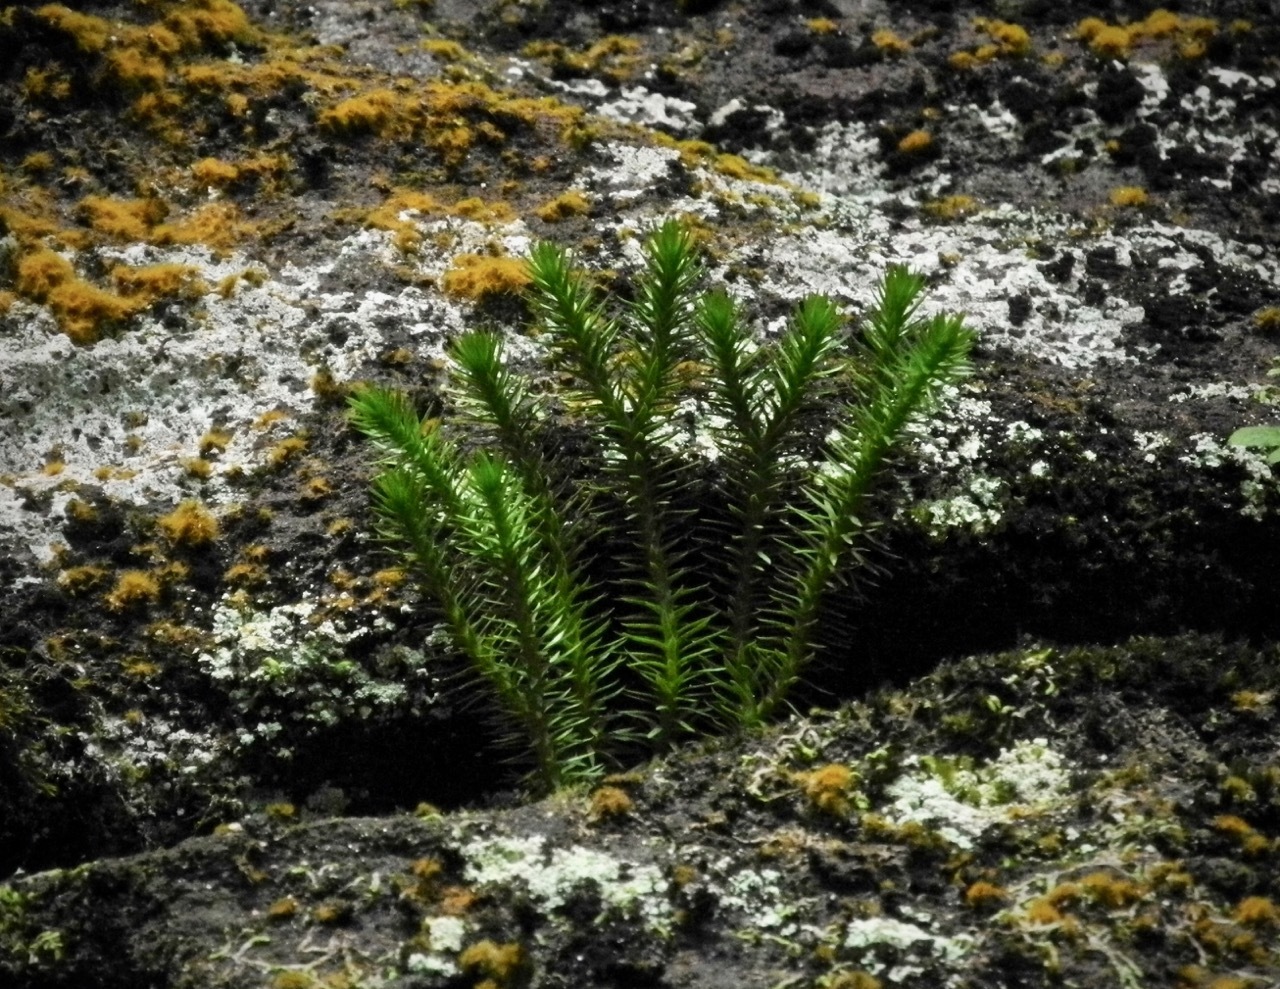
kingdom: Plantae
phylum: Tracheophyta
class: Lycopodiopsida
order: Lycopodiales
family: Lycopodiaceae
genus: Huperzia
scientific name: Huperzia lucidula
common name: Shining clubmoss
